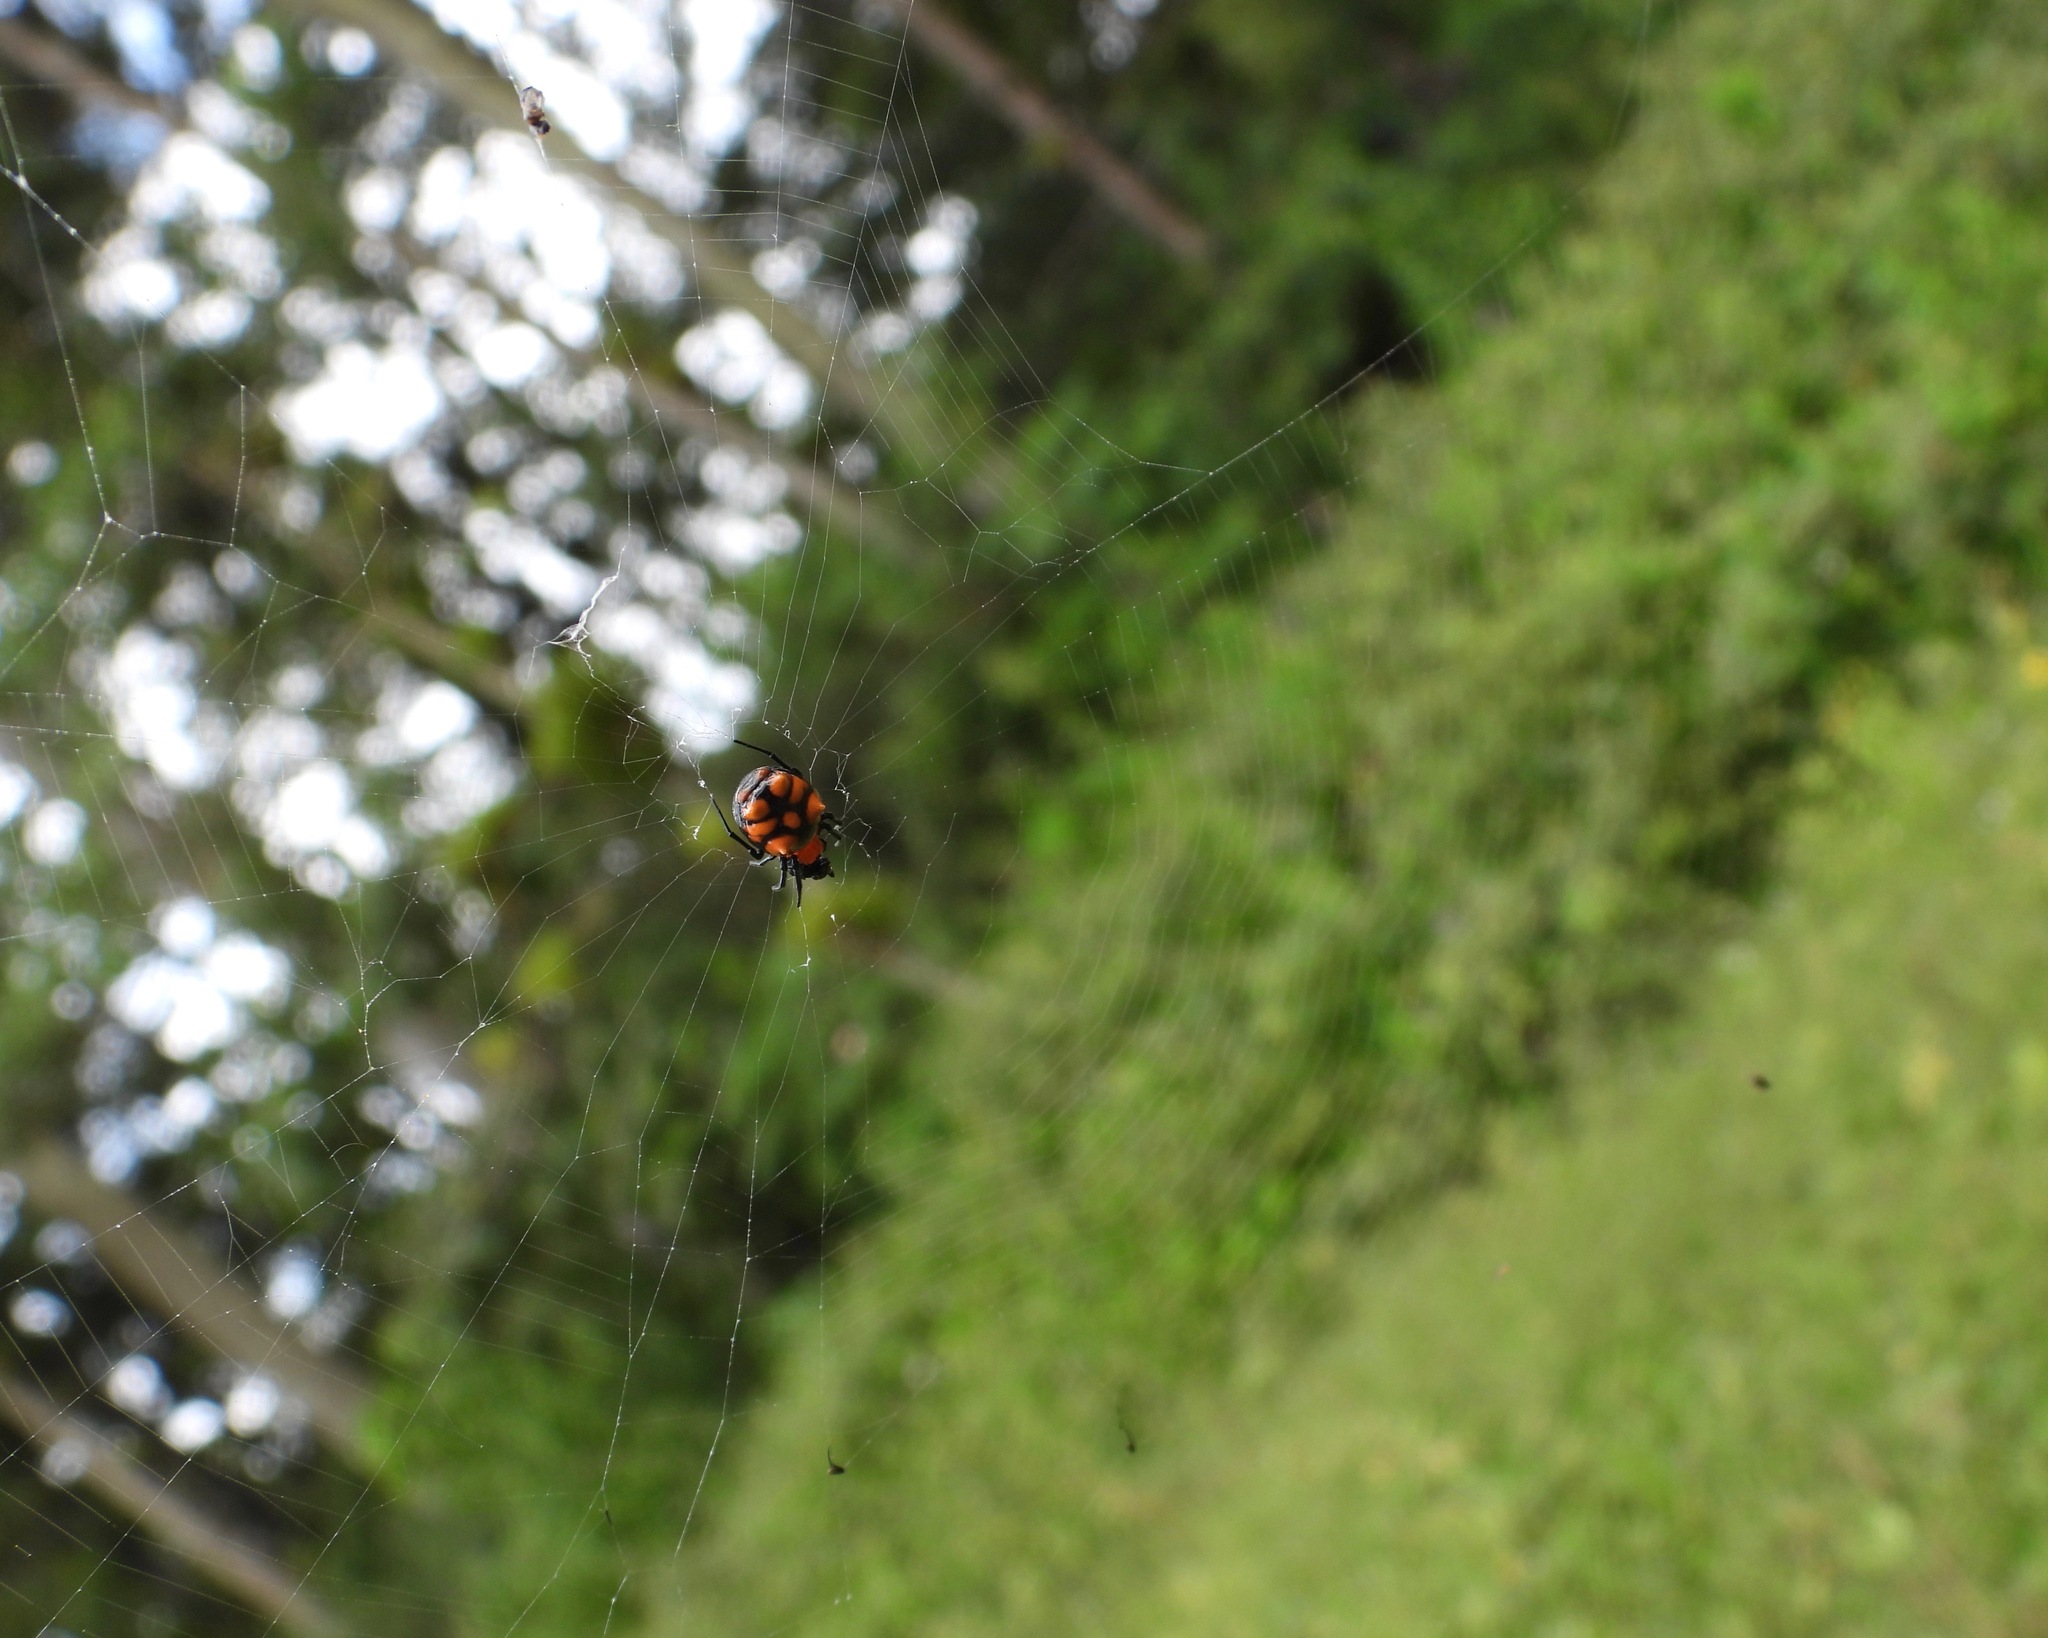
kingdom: Animalia
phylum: Arthropoda
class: Arachnida
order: Araneae
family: Araneidae
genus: Micrathena
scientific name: Micrathena glyptogonoides
